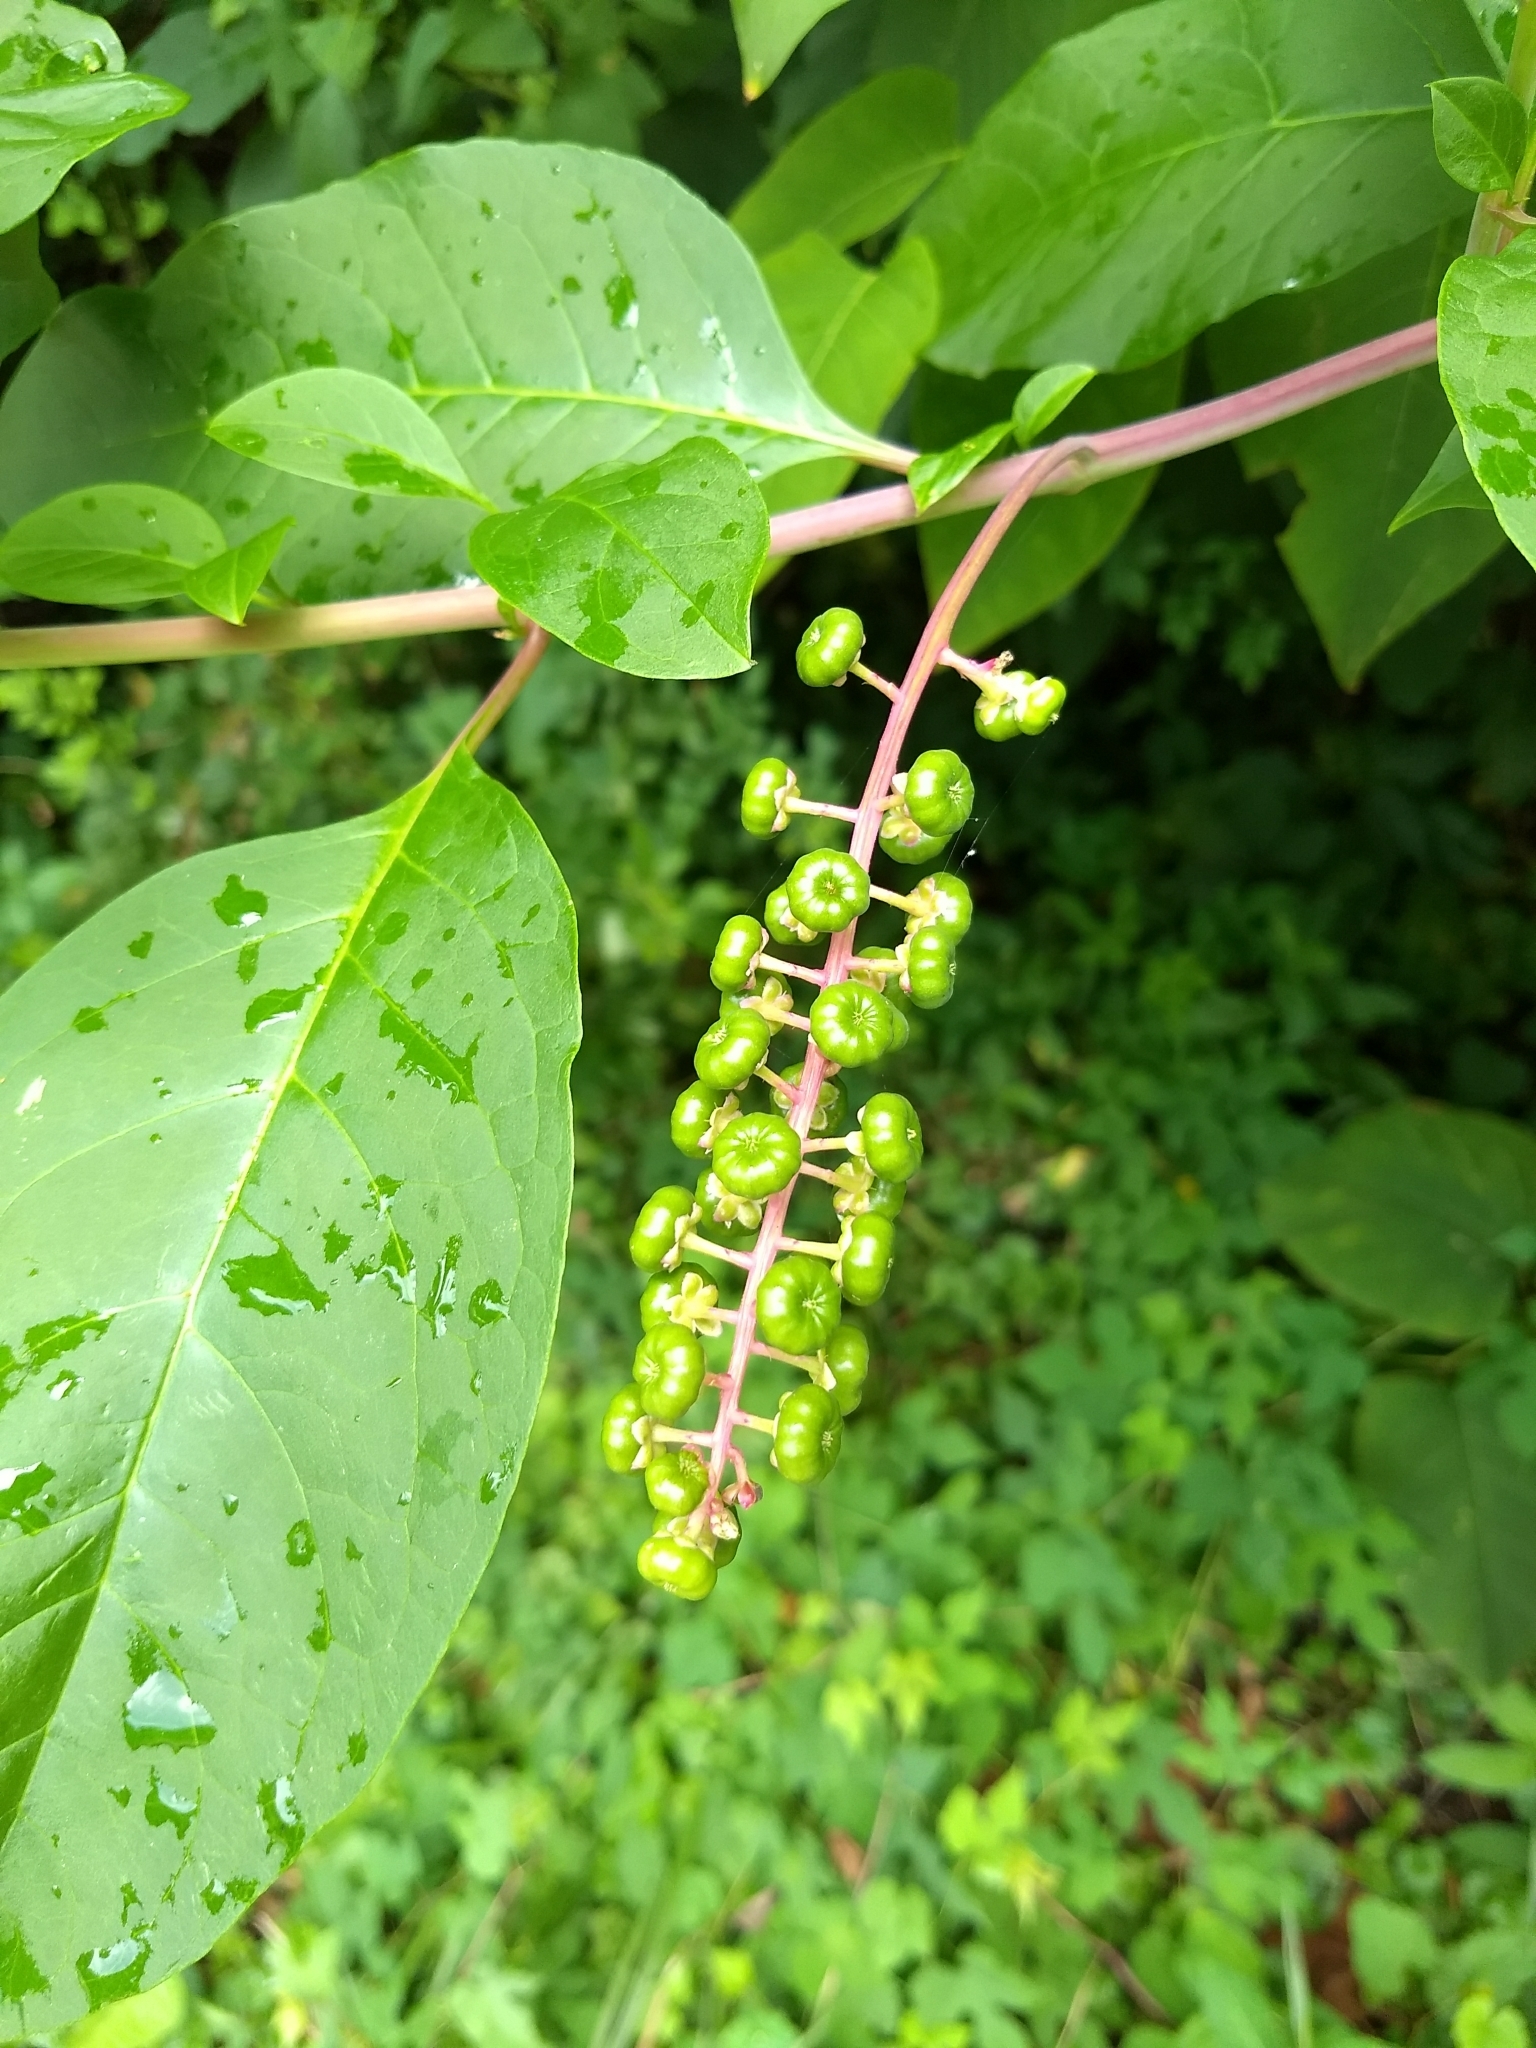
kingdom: Plantae
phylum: Tracheophyta
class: Magnoliopsida
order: Caryophyllales
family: Phytolaccaceae
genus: Phytolacca
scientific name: Phytolacca americana
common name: American pokeweed
